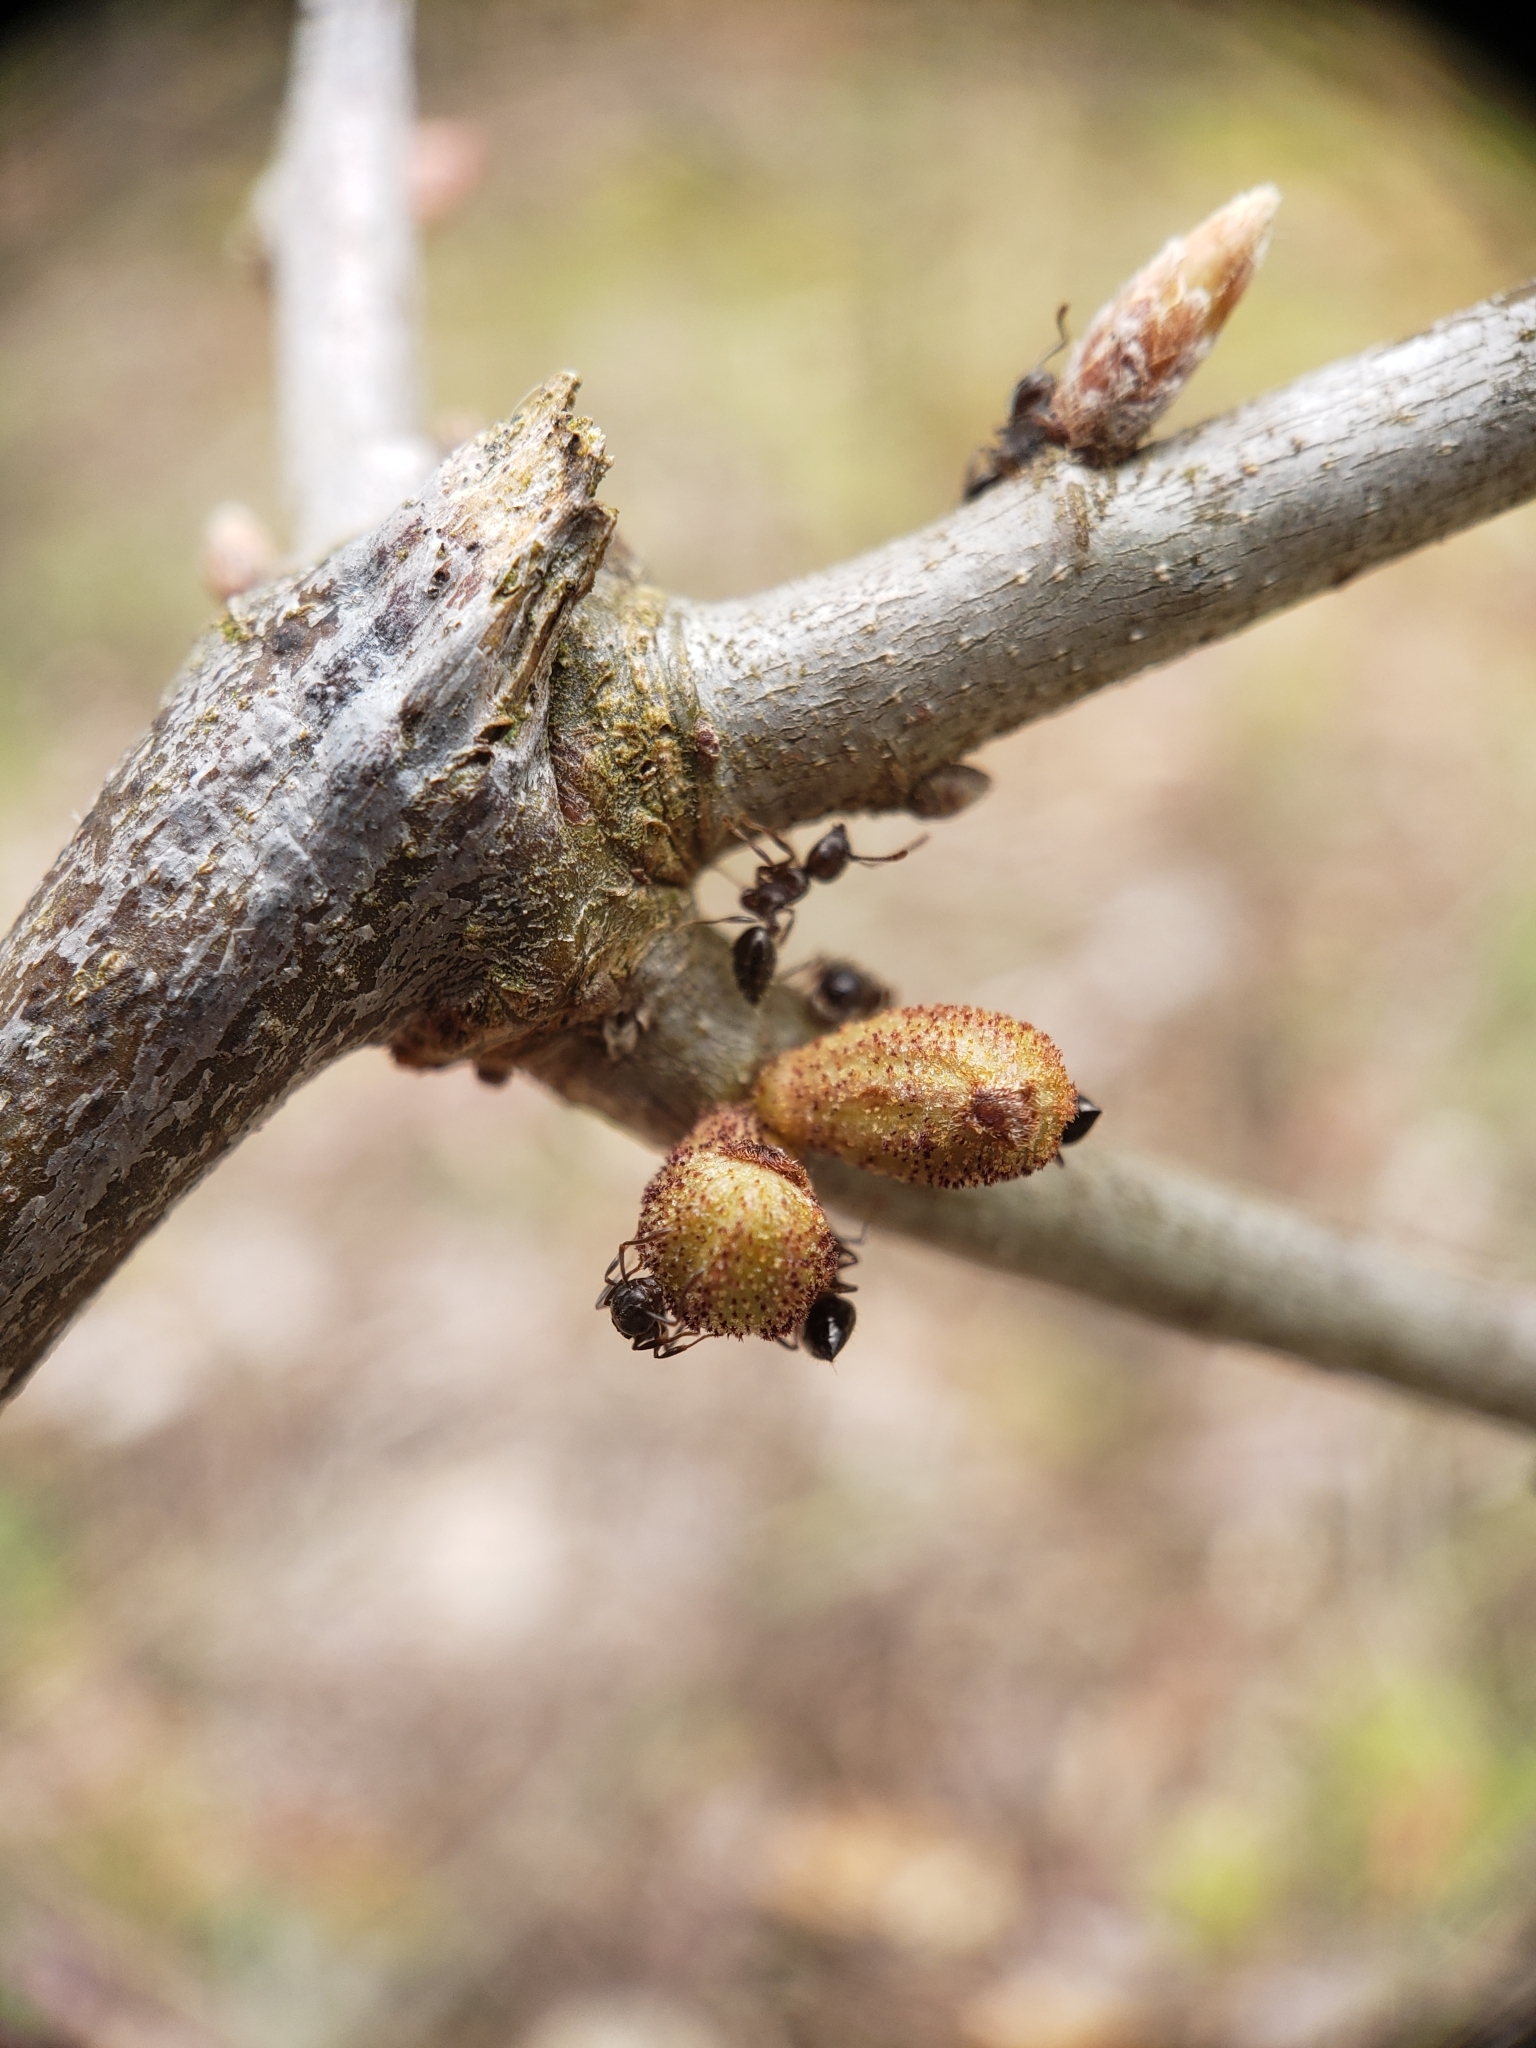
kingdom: Animalia
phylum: Arthropoda
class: Insecta
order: Hymenoptera
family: Cynipidae
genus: Callirhytis
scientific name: Callirhytis
